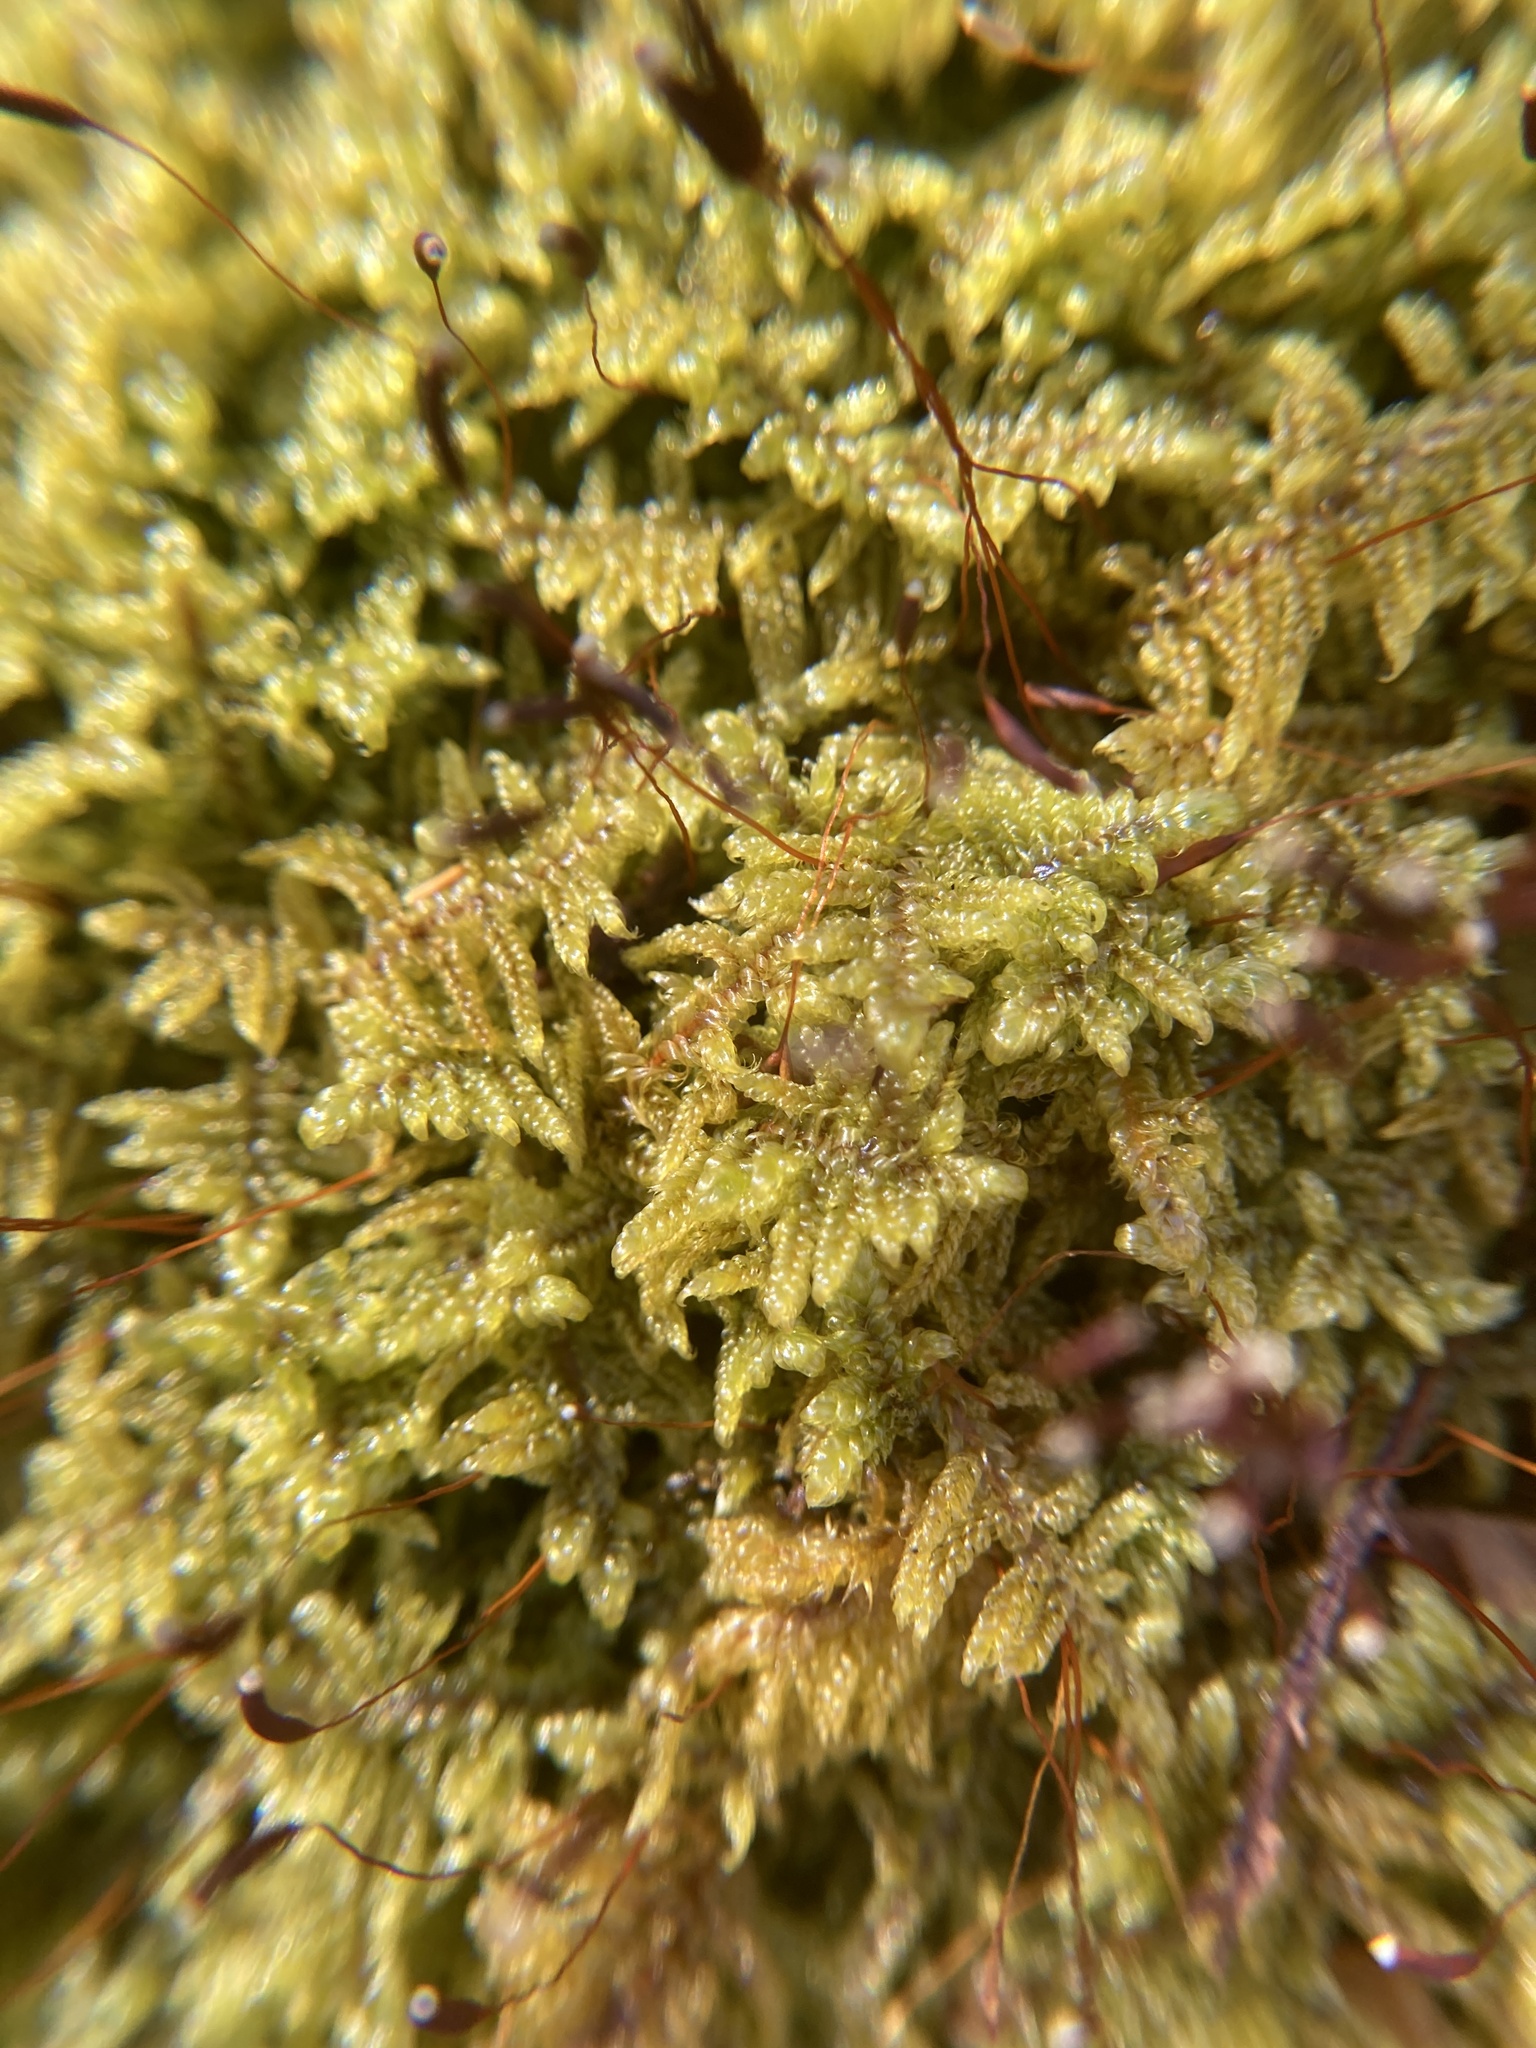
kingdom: Plantae
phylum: Bryophyta
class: Bryopsida
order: Hypnales
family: Callicladiaceae
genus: Callicladium
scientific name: Callicladium imponens
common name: Brocade moss
